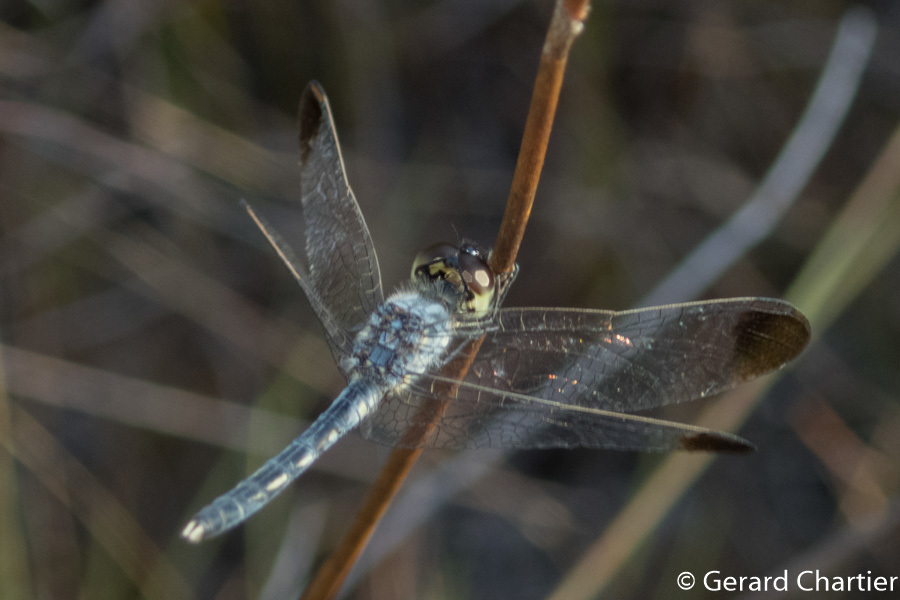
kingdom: Animalia
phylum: Arthropoda
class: Insecta
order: Odonata
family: Libellulidae
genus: Diplacodes
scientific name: Diplacodes nebulosa
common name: Black-tipped percher
